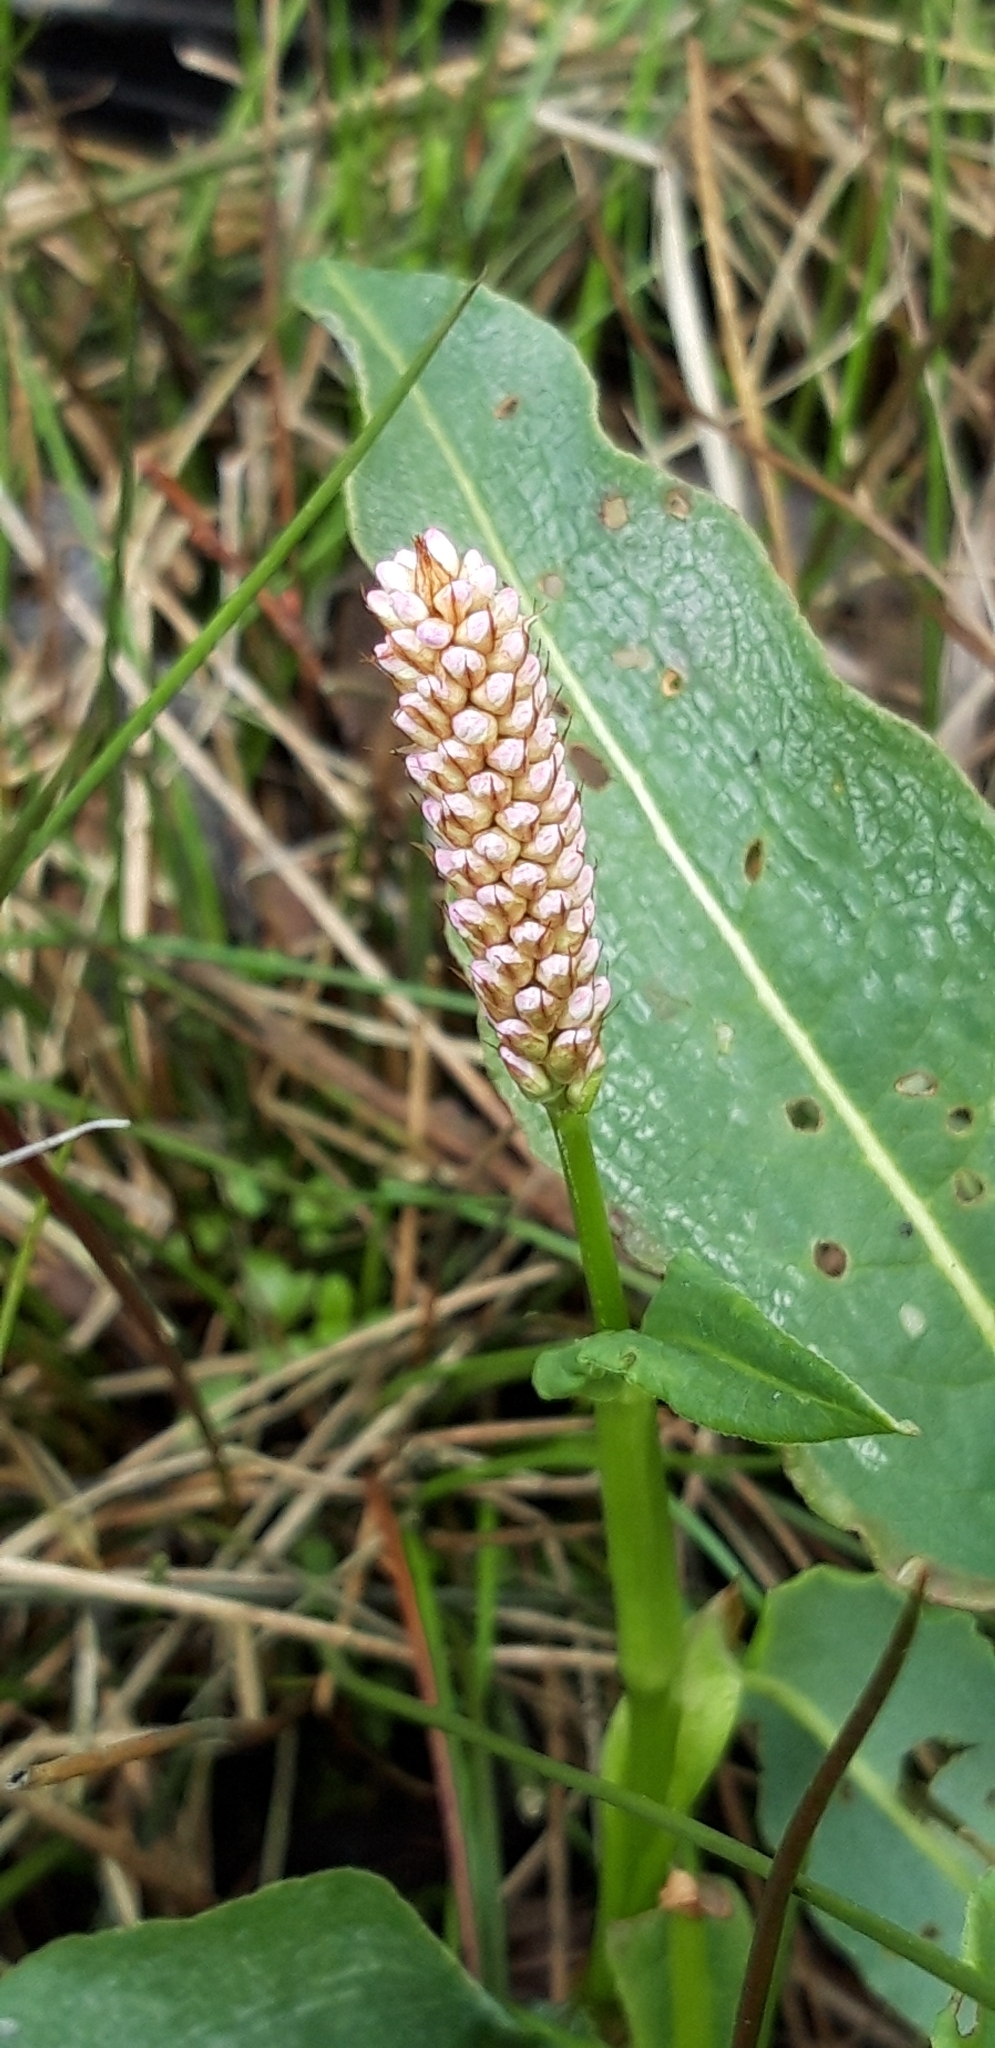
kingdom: Plantae
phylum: Tracheophyta
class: Magnoliopsida
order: Caryophyllales
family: Polygonaceae
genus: Bistorta
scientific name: Bistorta officinalis
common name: Common bistort
